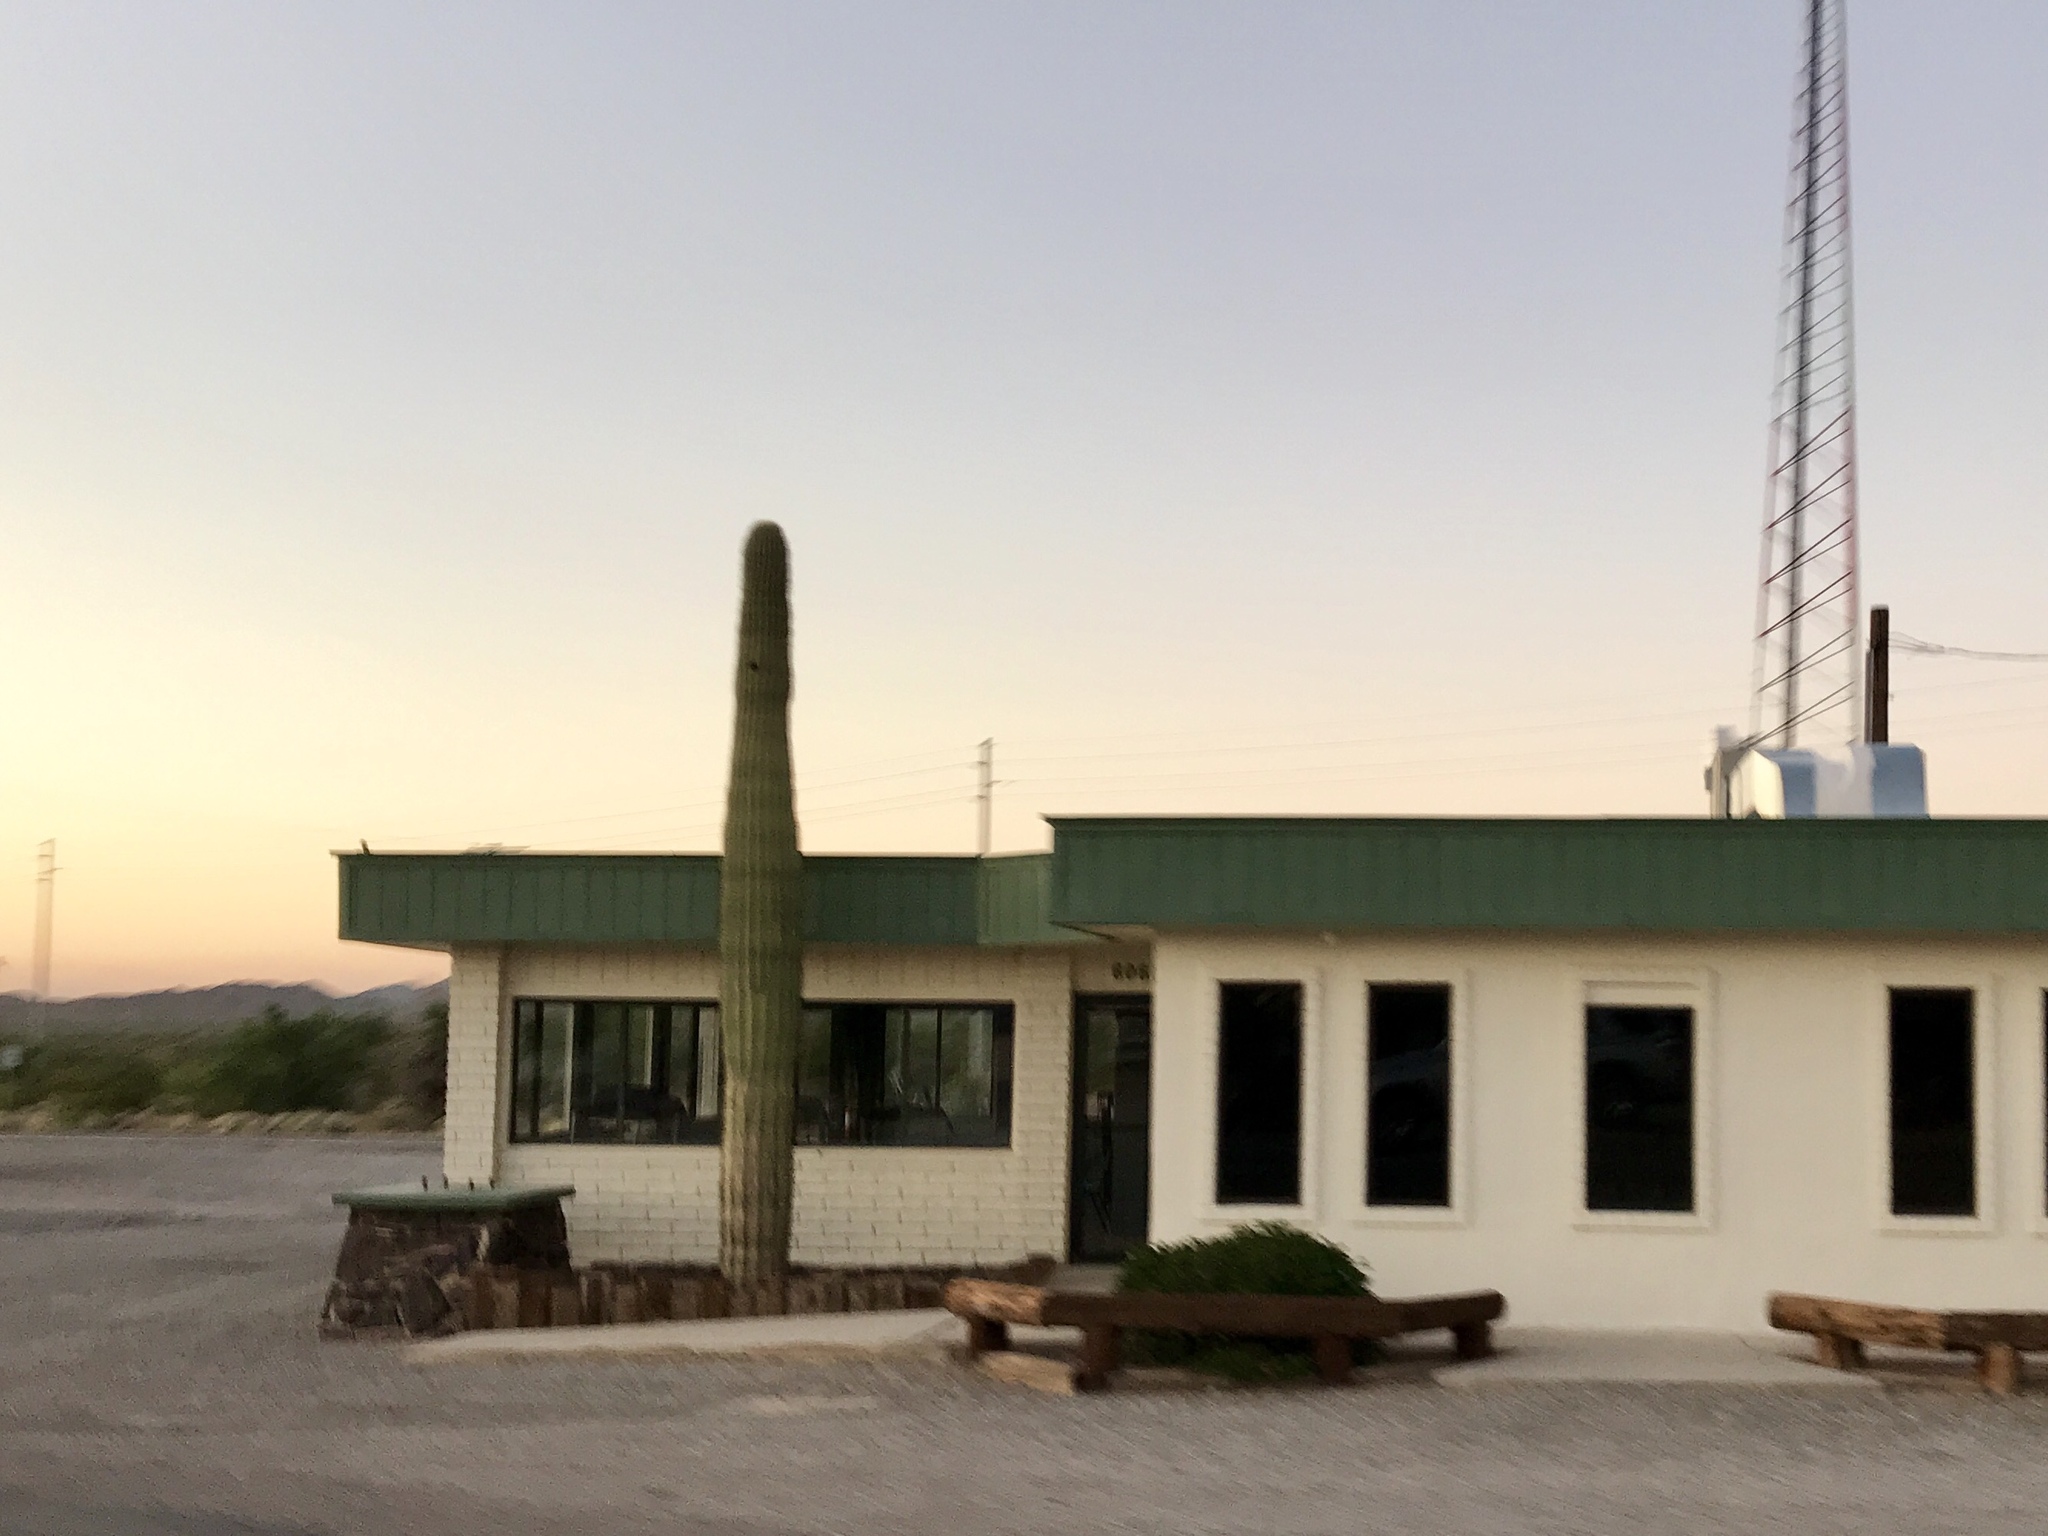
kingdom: Plantae
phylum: Tracheophyta
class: Magnoliopsida
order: Caryophyllales
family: Cactaceae
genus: Carnegiea
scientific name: Carnegiea gigantea
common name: Saguaro
